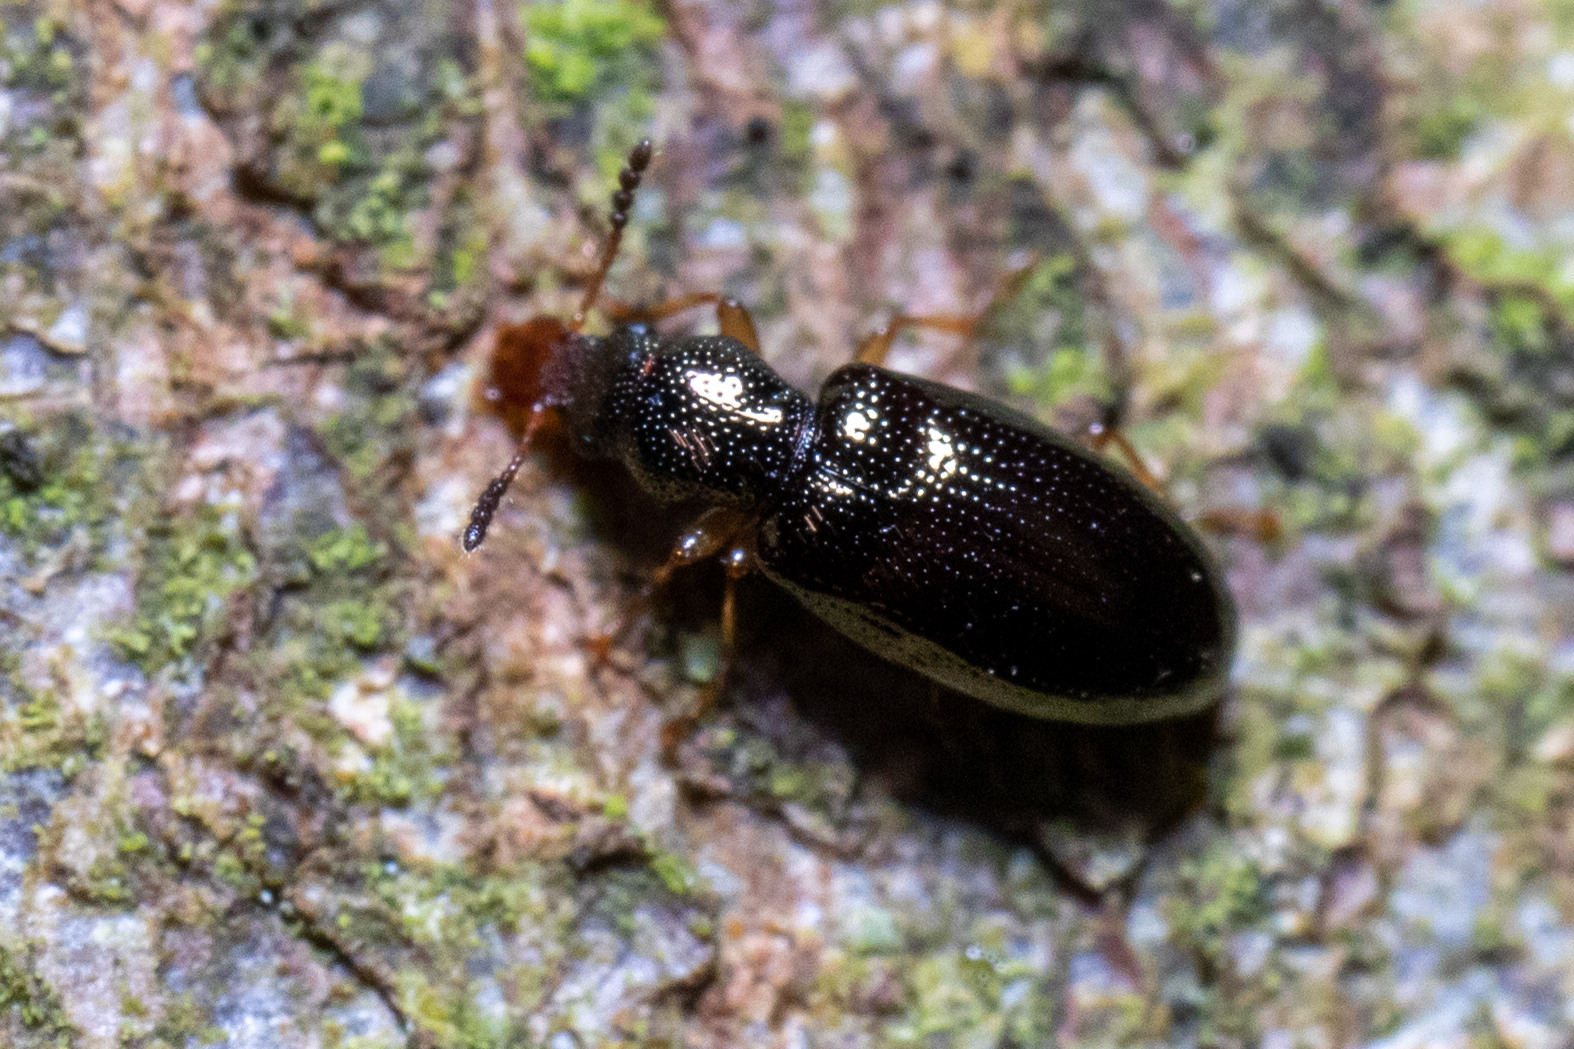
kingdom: Animalia
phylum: Arthropoda
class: Insecta
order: Coleoptera
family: Salpingidae
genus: Salpingus
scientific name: Salpingus planirostris
